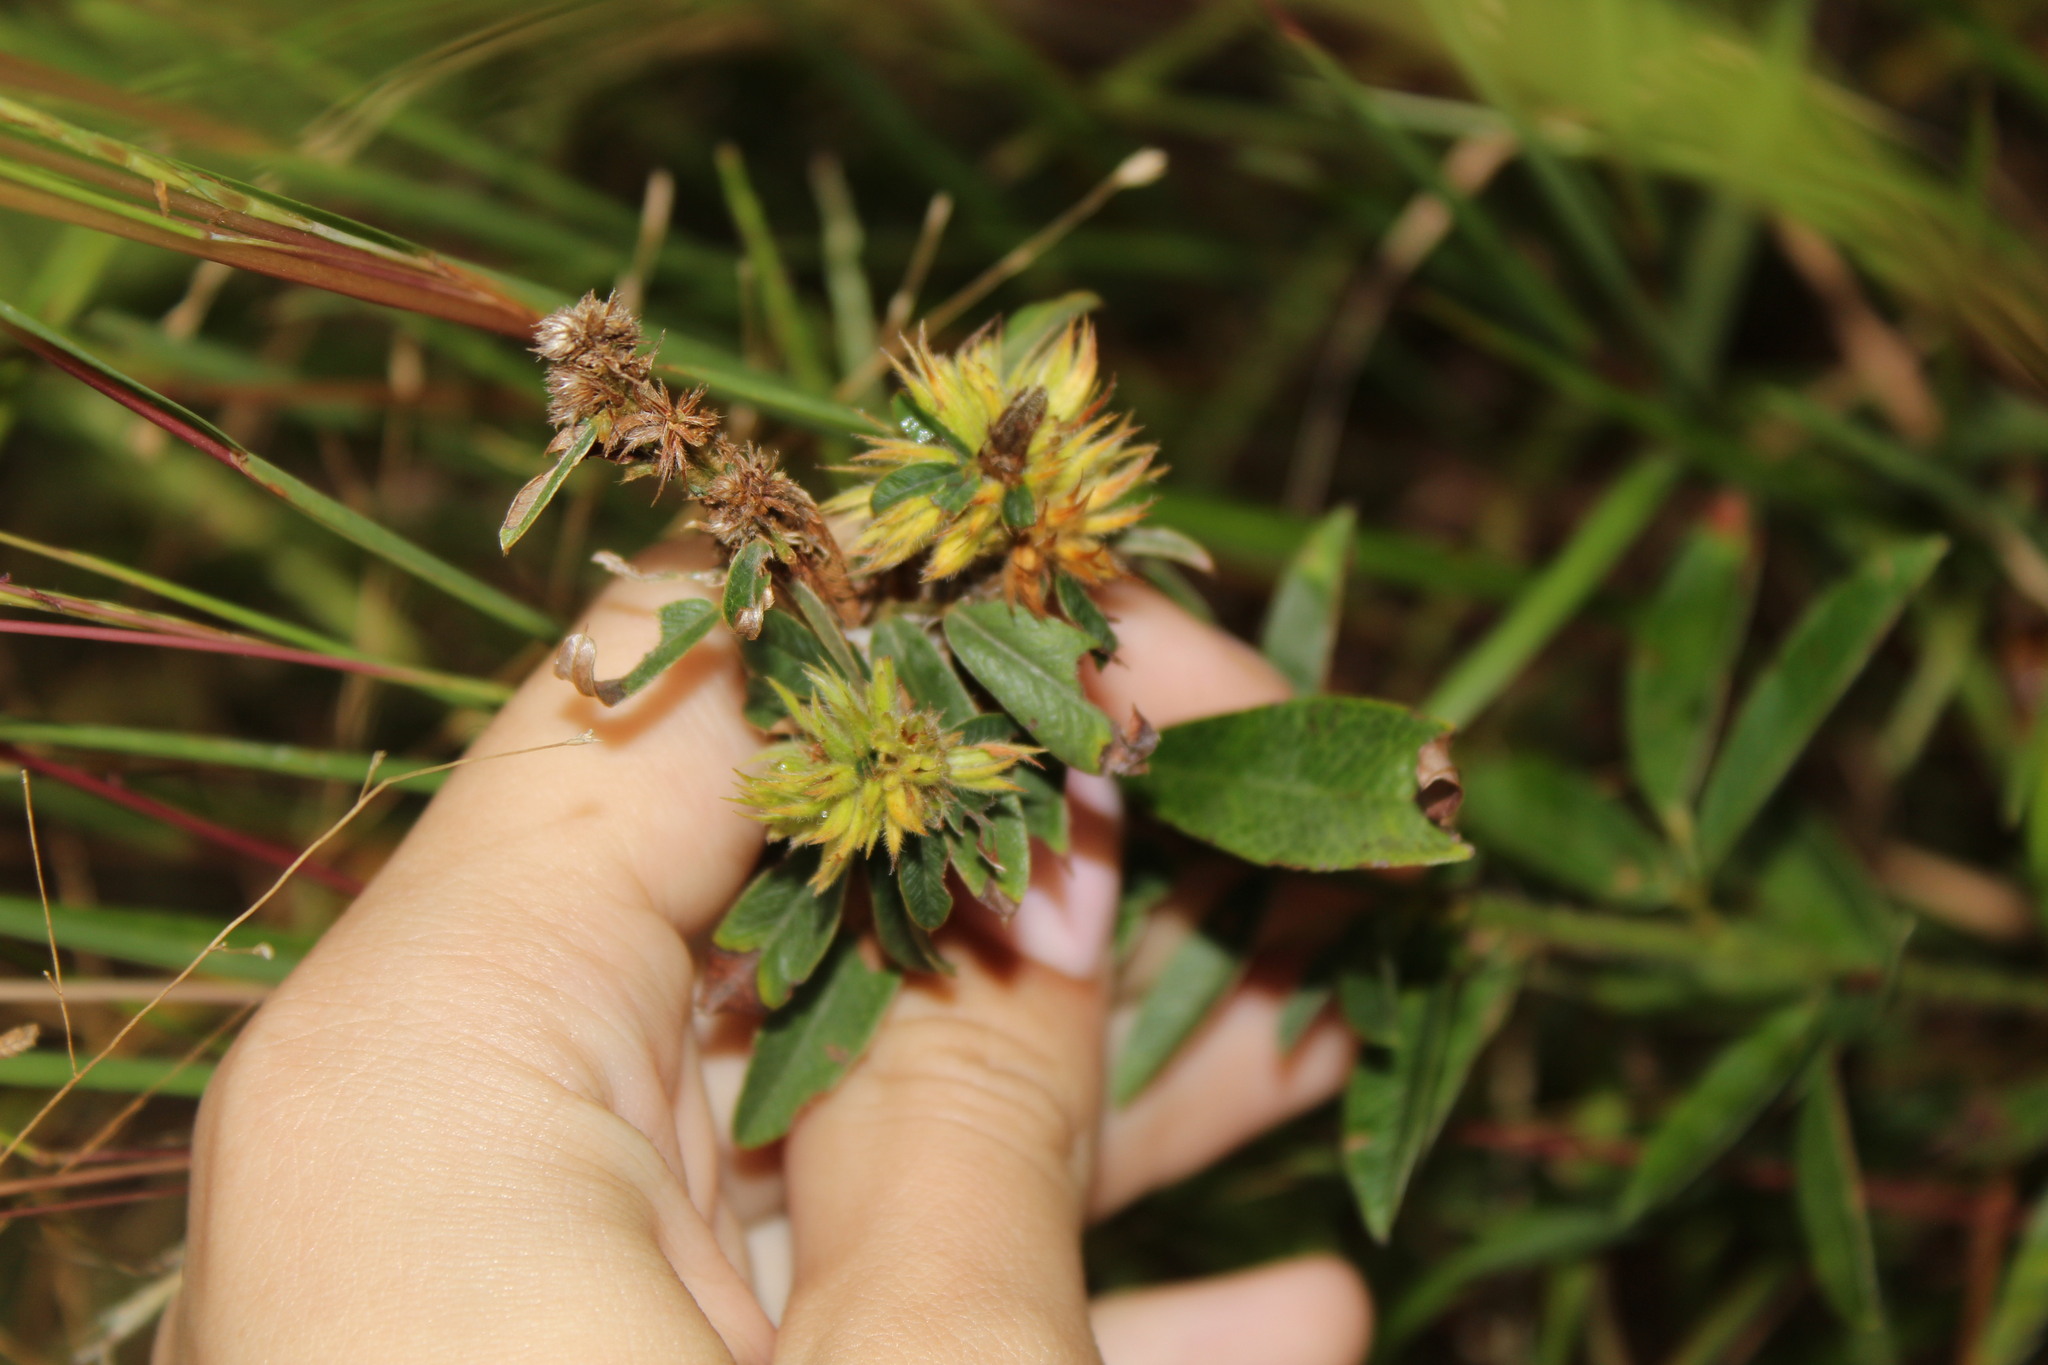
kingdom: Plantae
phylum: Tracheophyta
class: Magnoliopsida
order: Fabales
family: Fabaceae
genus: Lespedeza
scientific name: Lespedeza capitata
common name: Dusty clover
